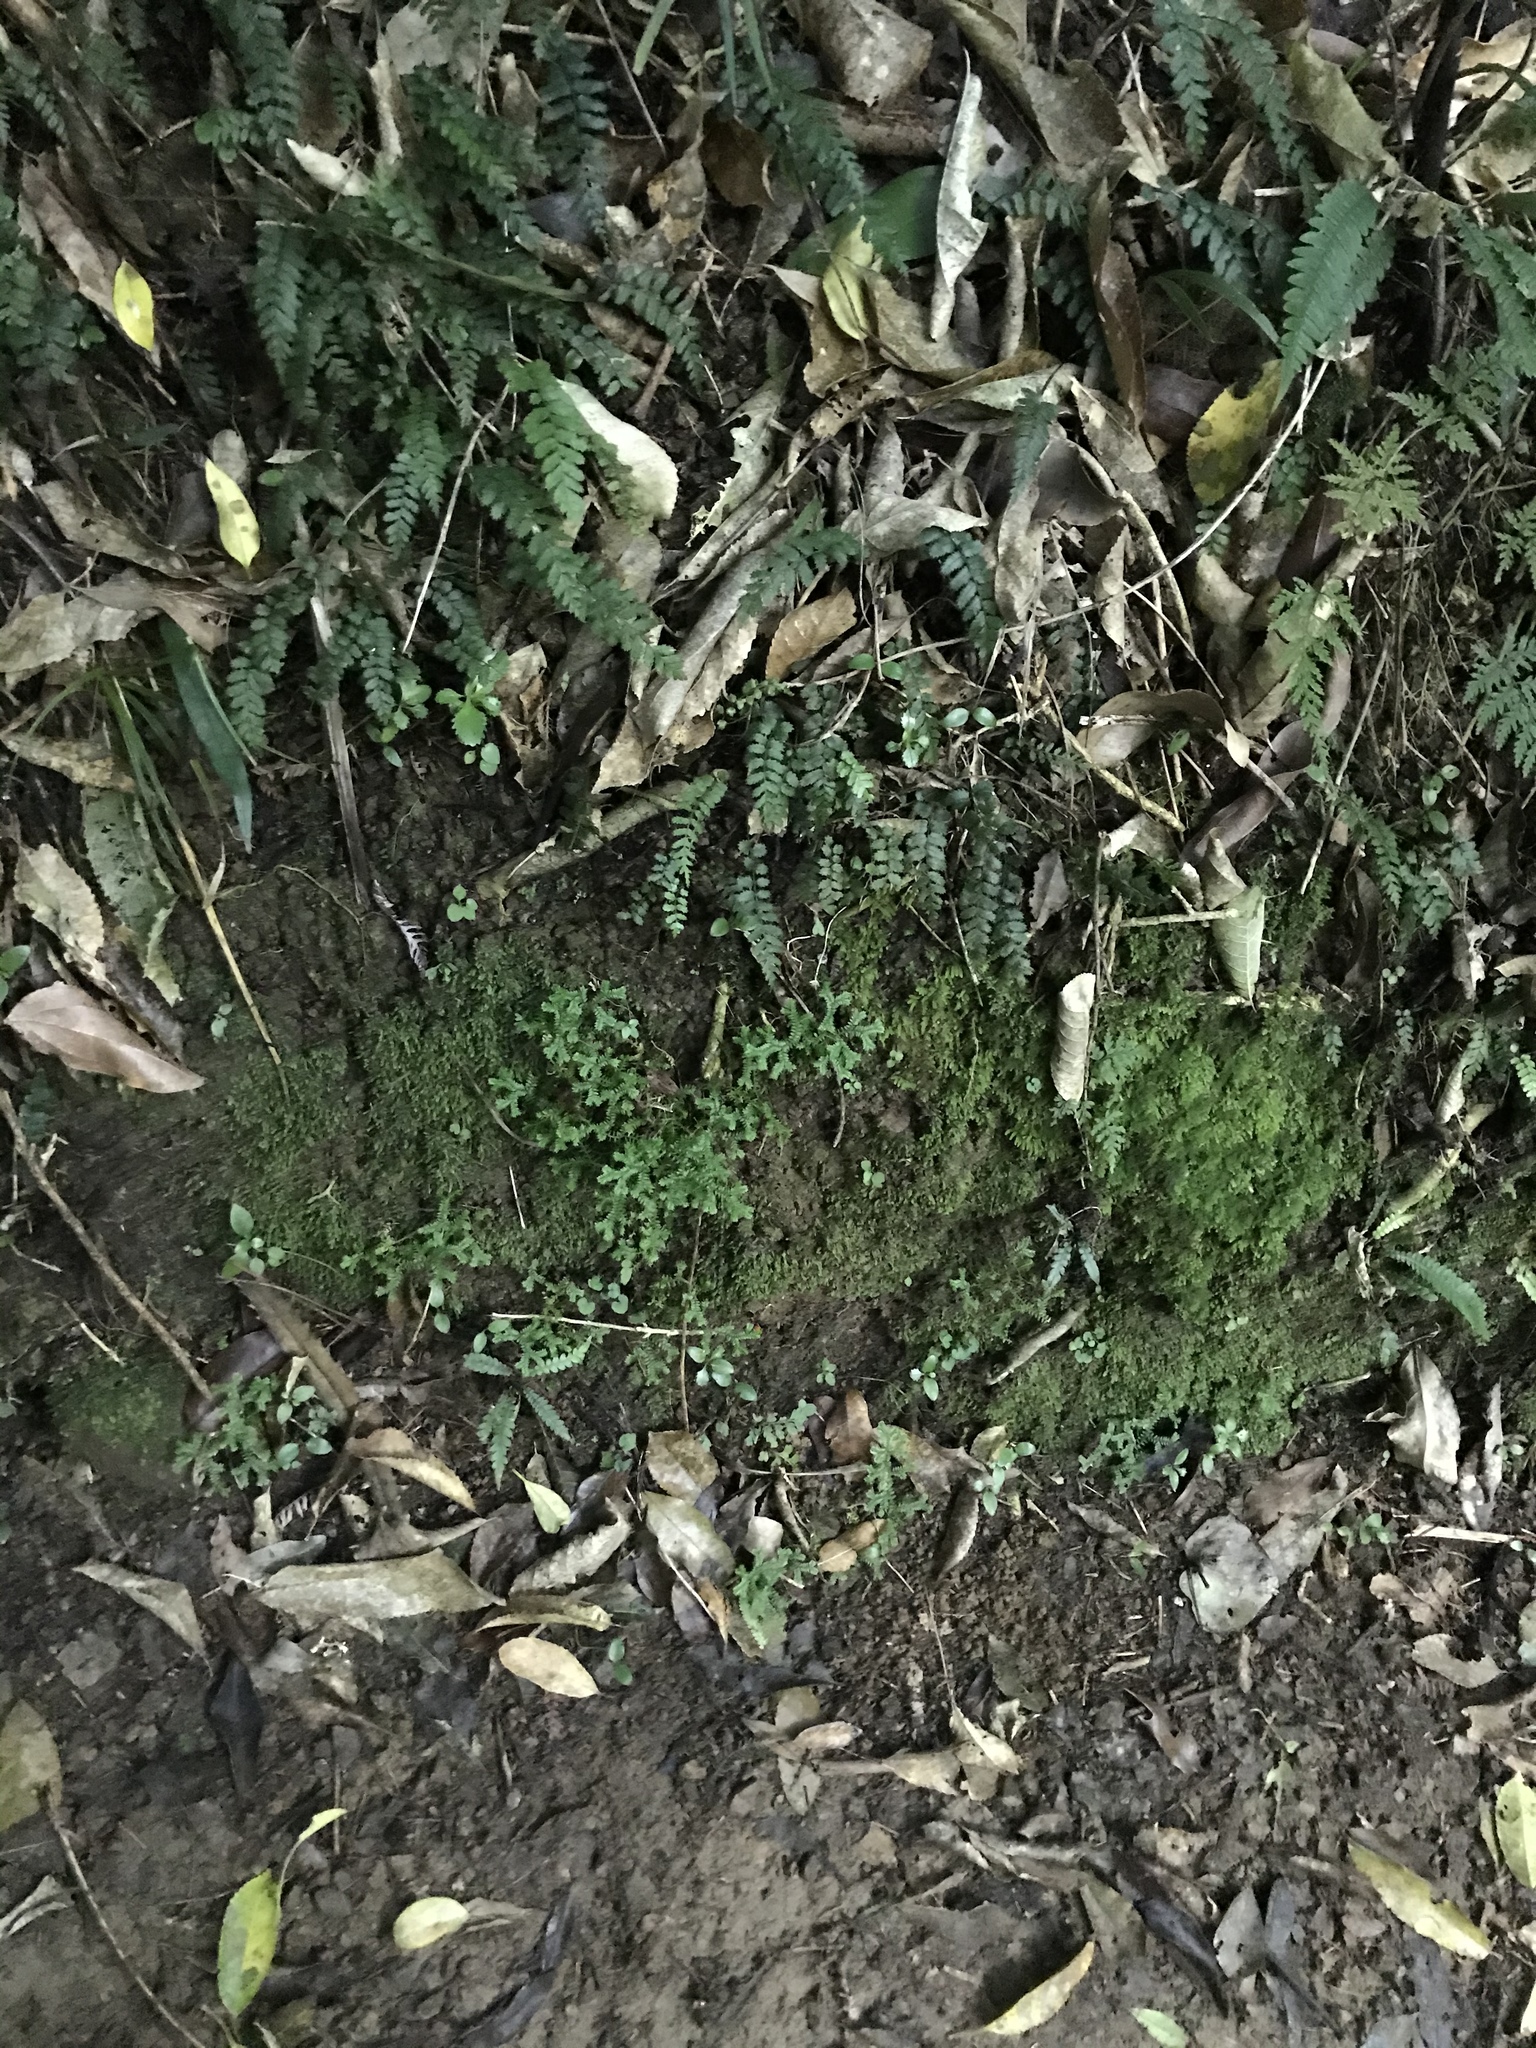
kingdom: Plantae
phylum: Tracheophyta
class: Lycopodiopsida
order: Selaginellales
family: Selaginellaceae
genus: Selaginella
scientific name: Selaginella kraussiana
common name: Krauss' spikemoss
